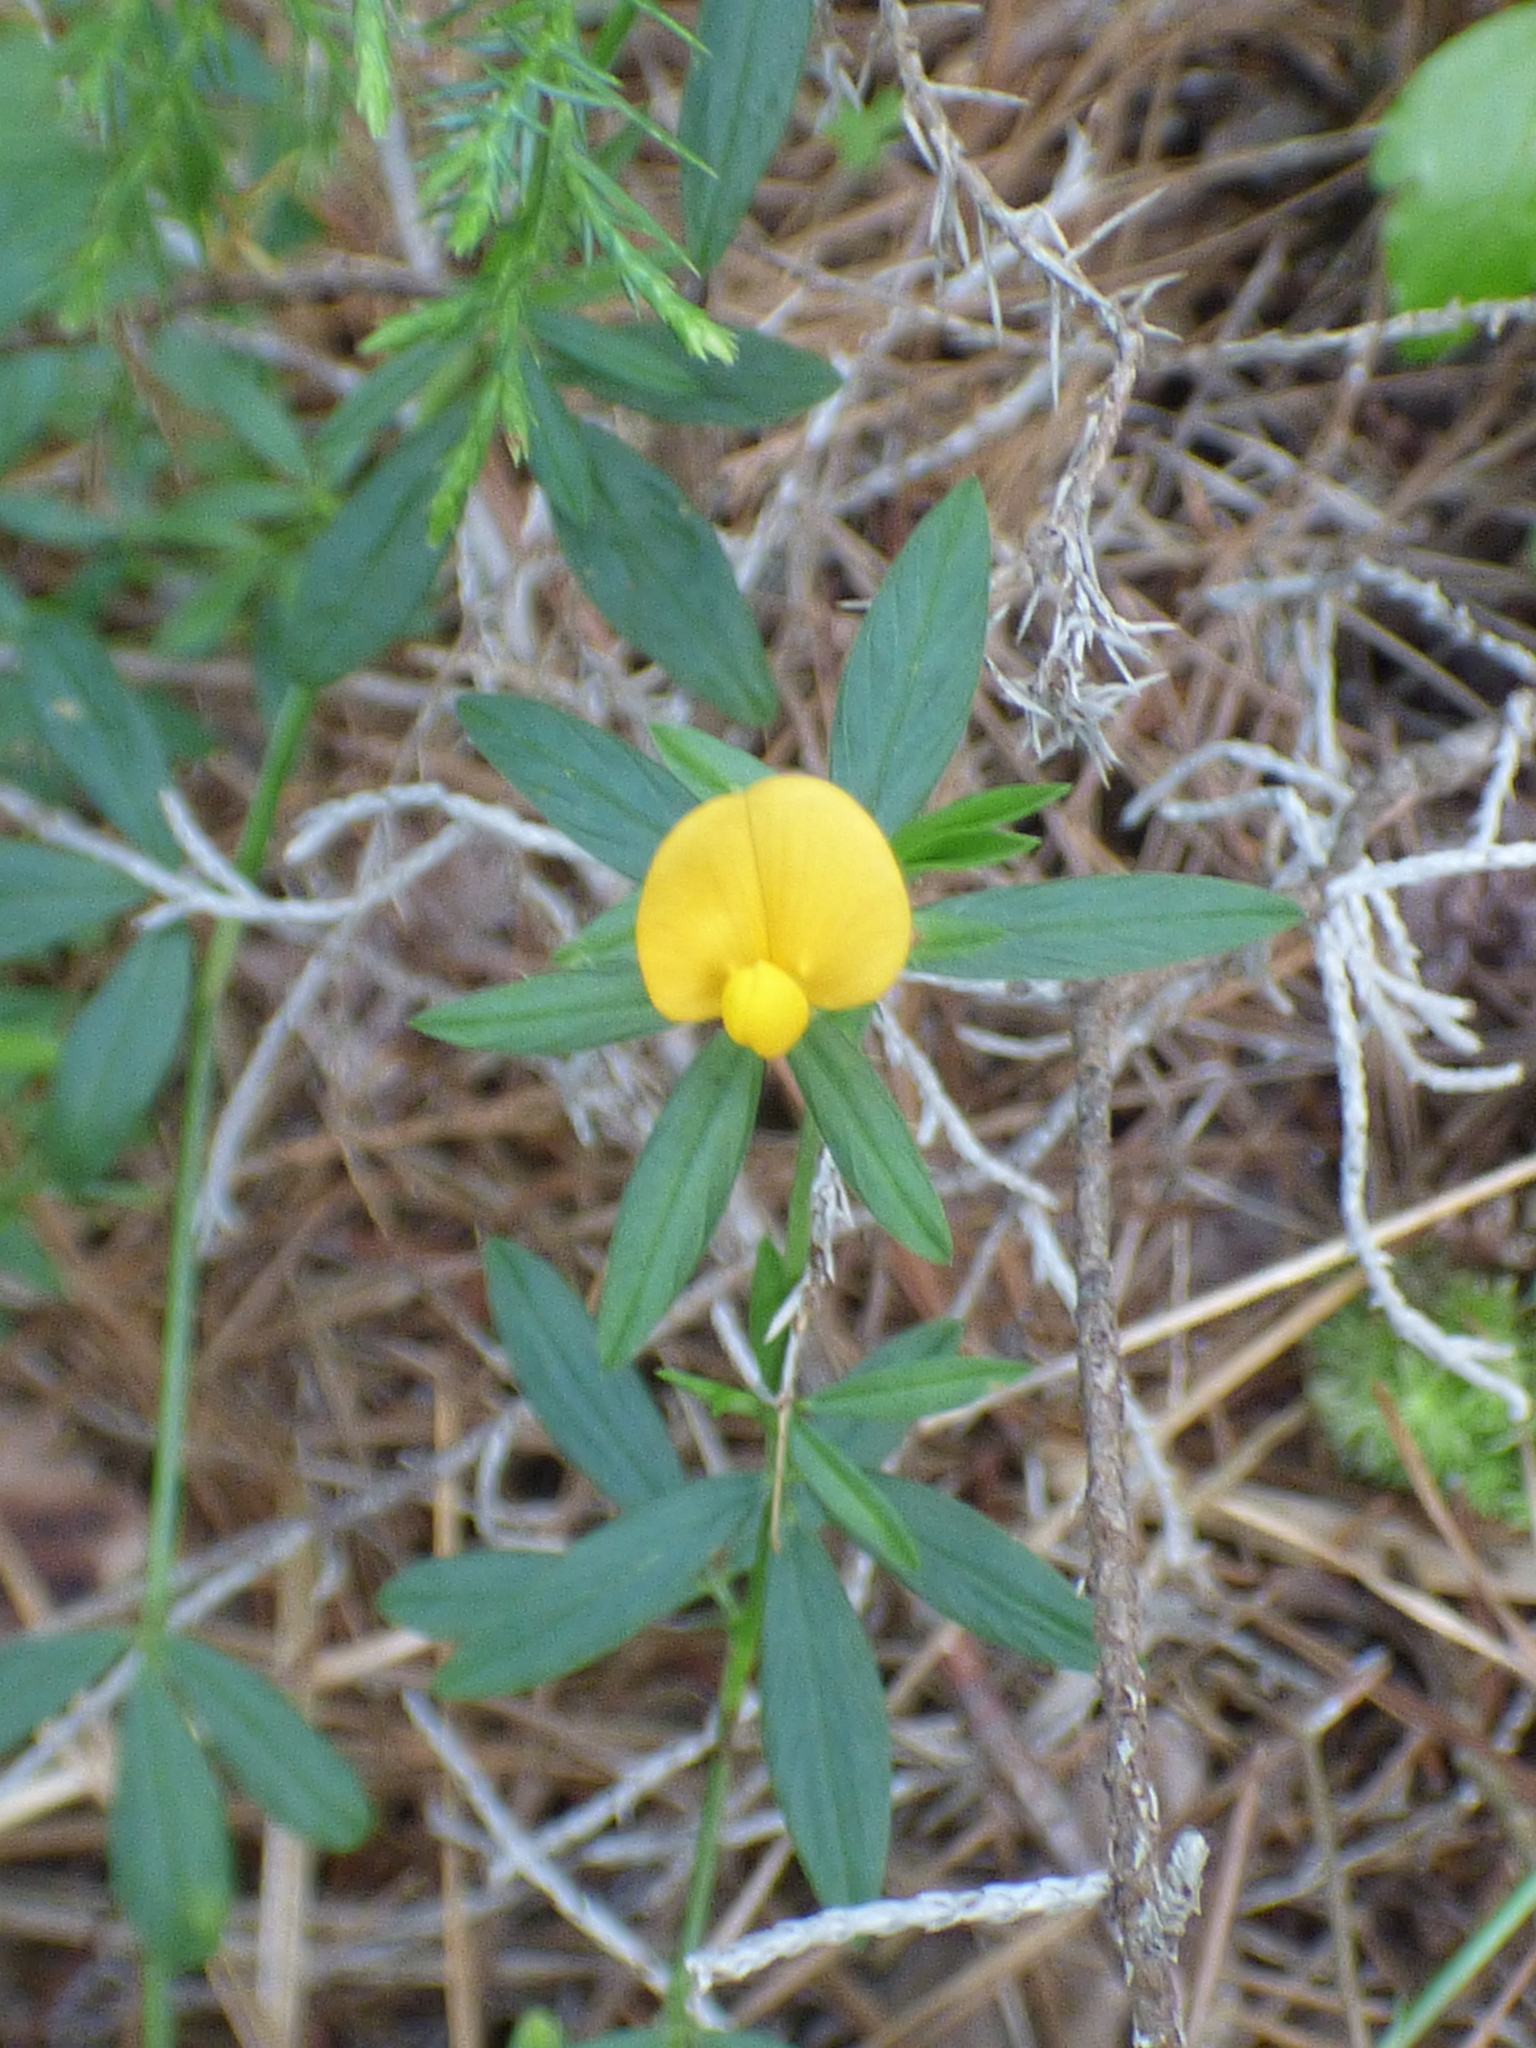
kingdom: Plantae
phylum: Tracheophyta
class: Magnoliopsida
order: Fabales
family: Fabaceae
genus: Stylosanthes
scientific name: Stylosanthes biflora
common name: Two-flower pencil-flower
